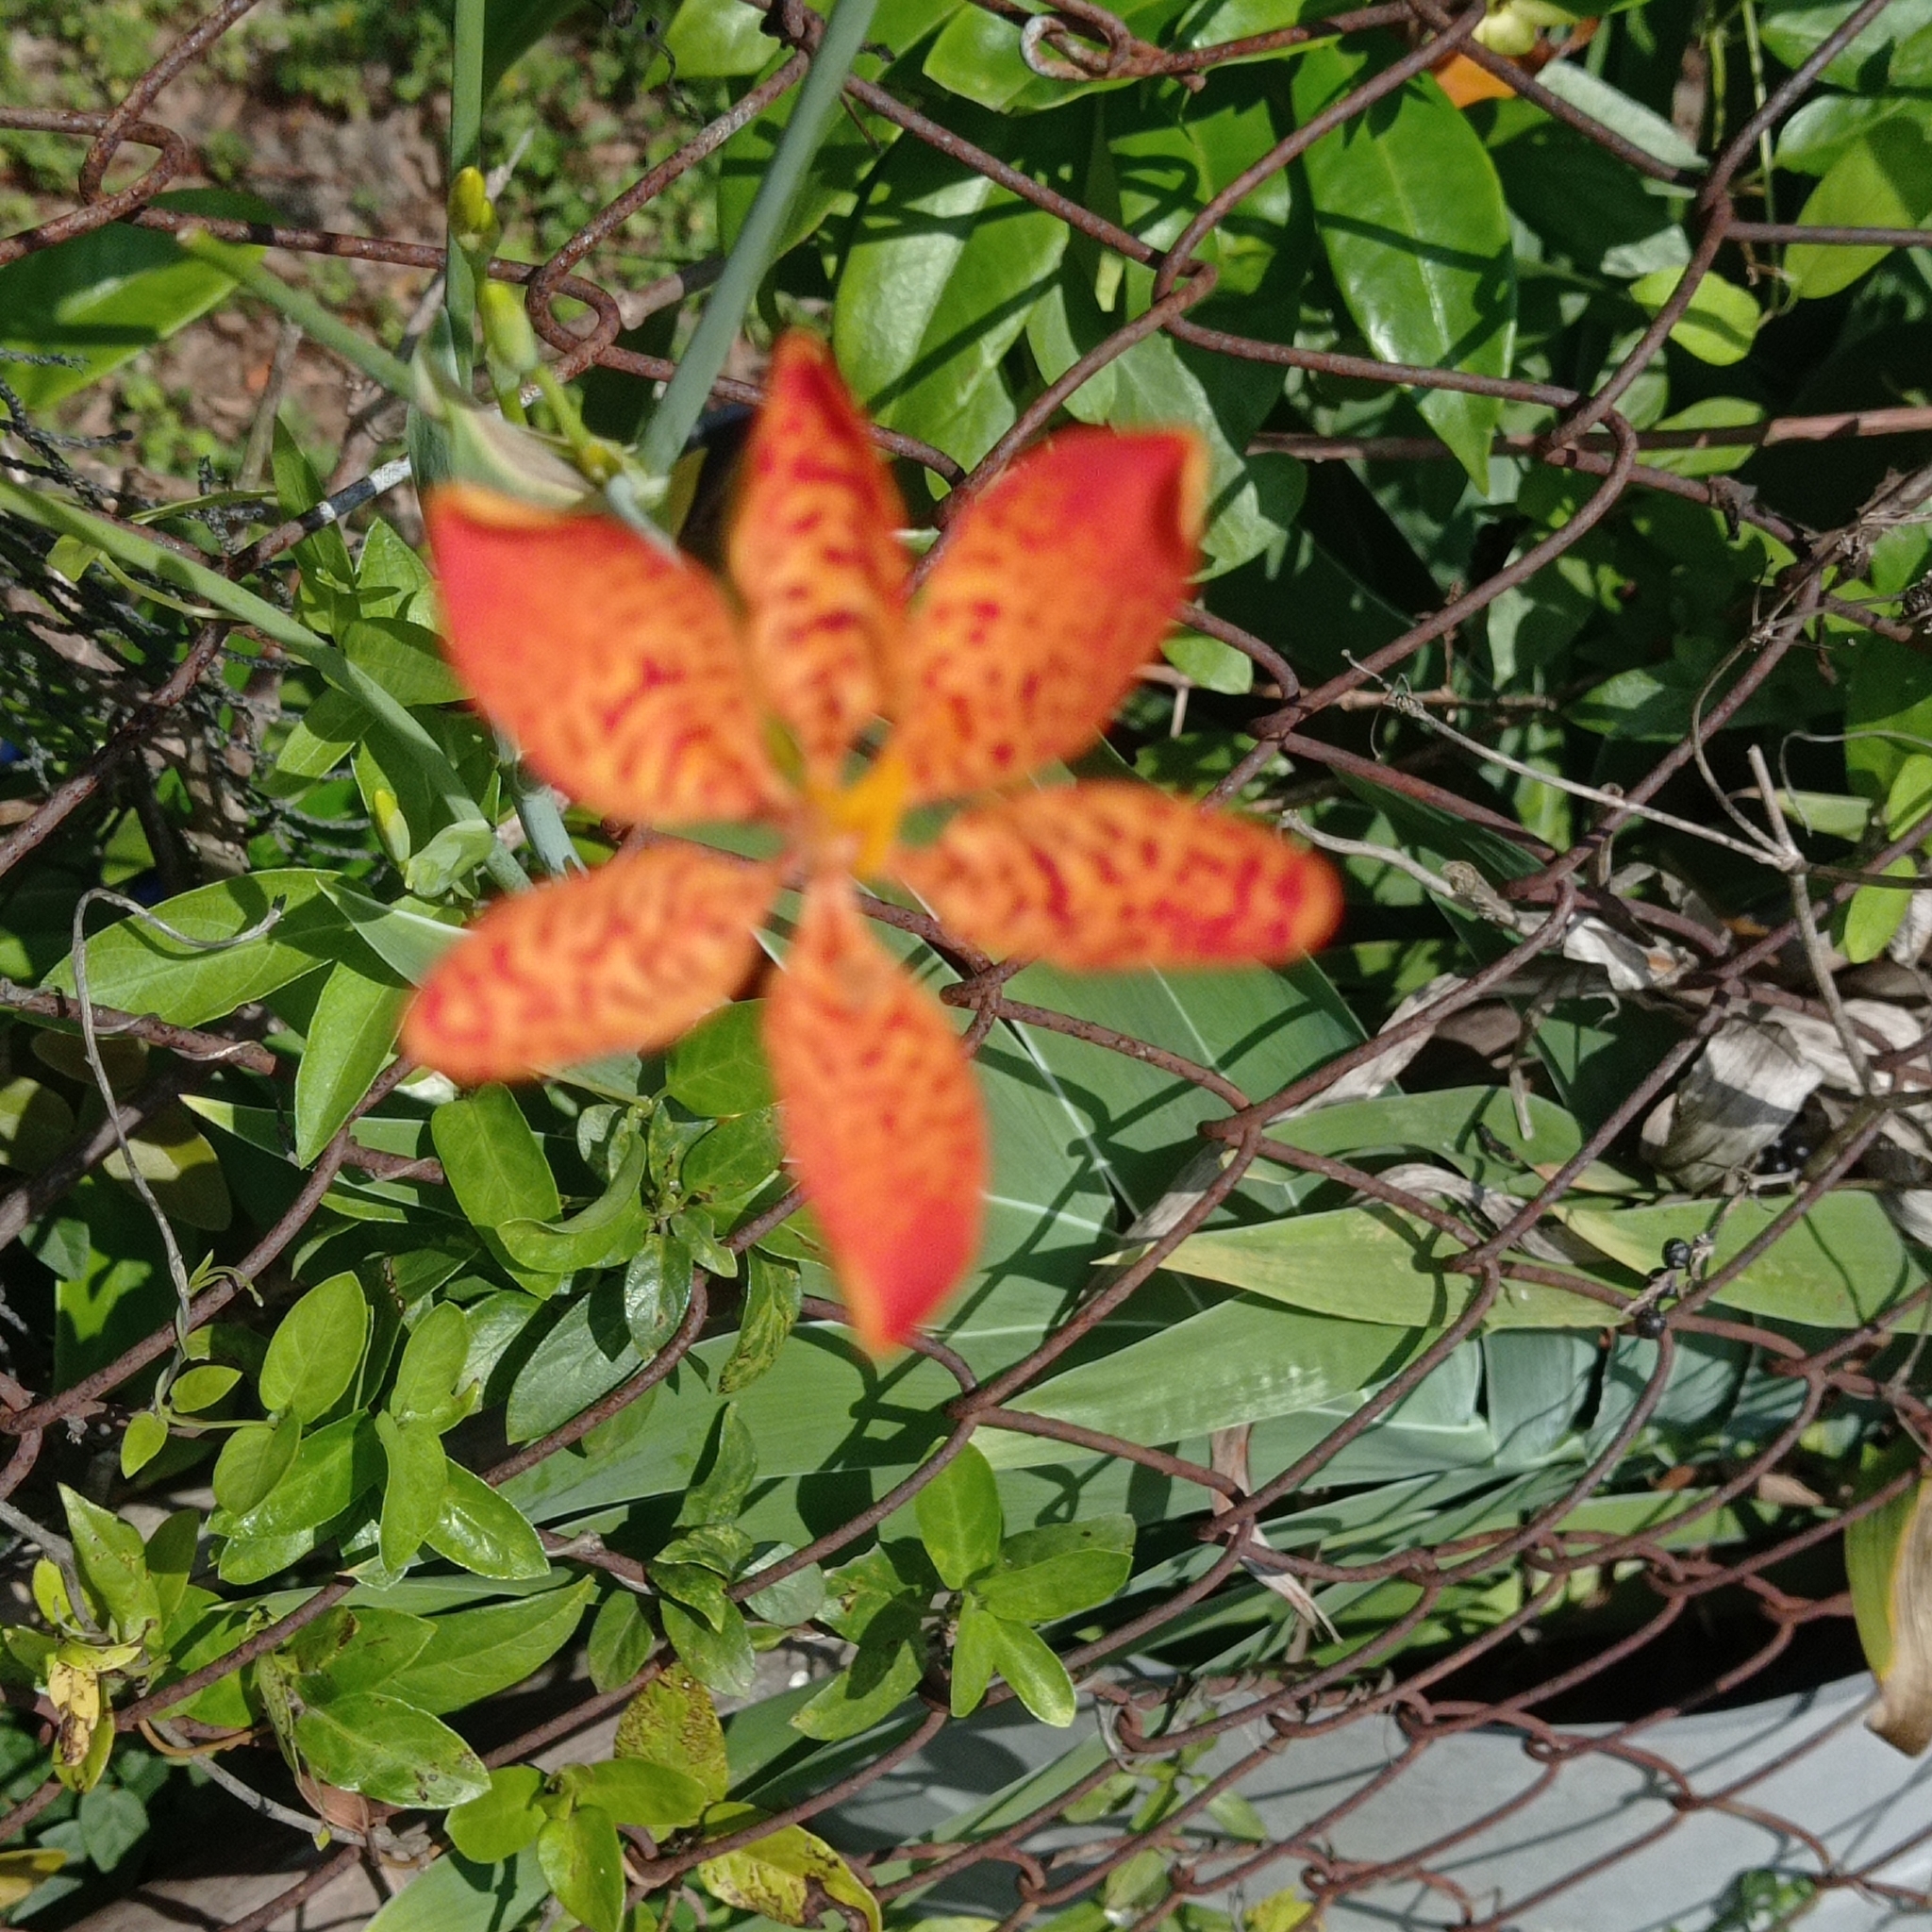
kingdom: Plantae
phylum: Tracheophyta
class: Liliopsida
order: Asparagales
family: Iridaceae
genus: Iris
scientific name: Iris domestica
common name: Belamcanda
